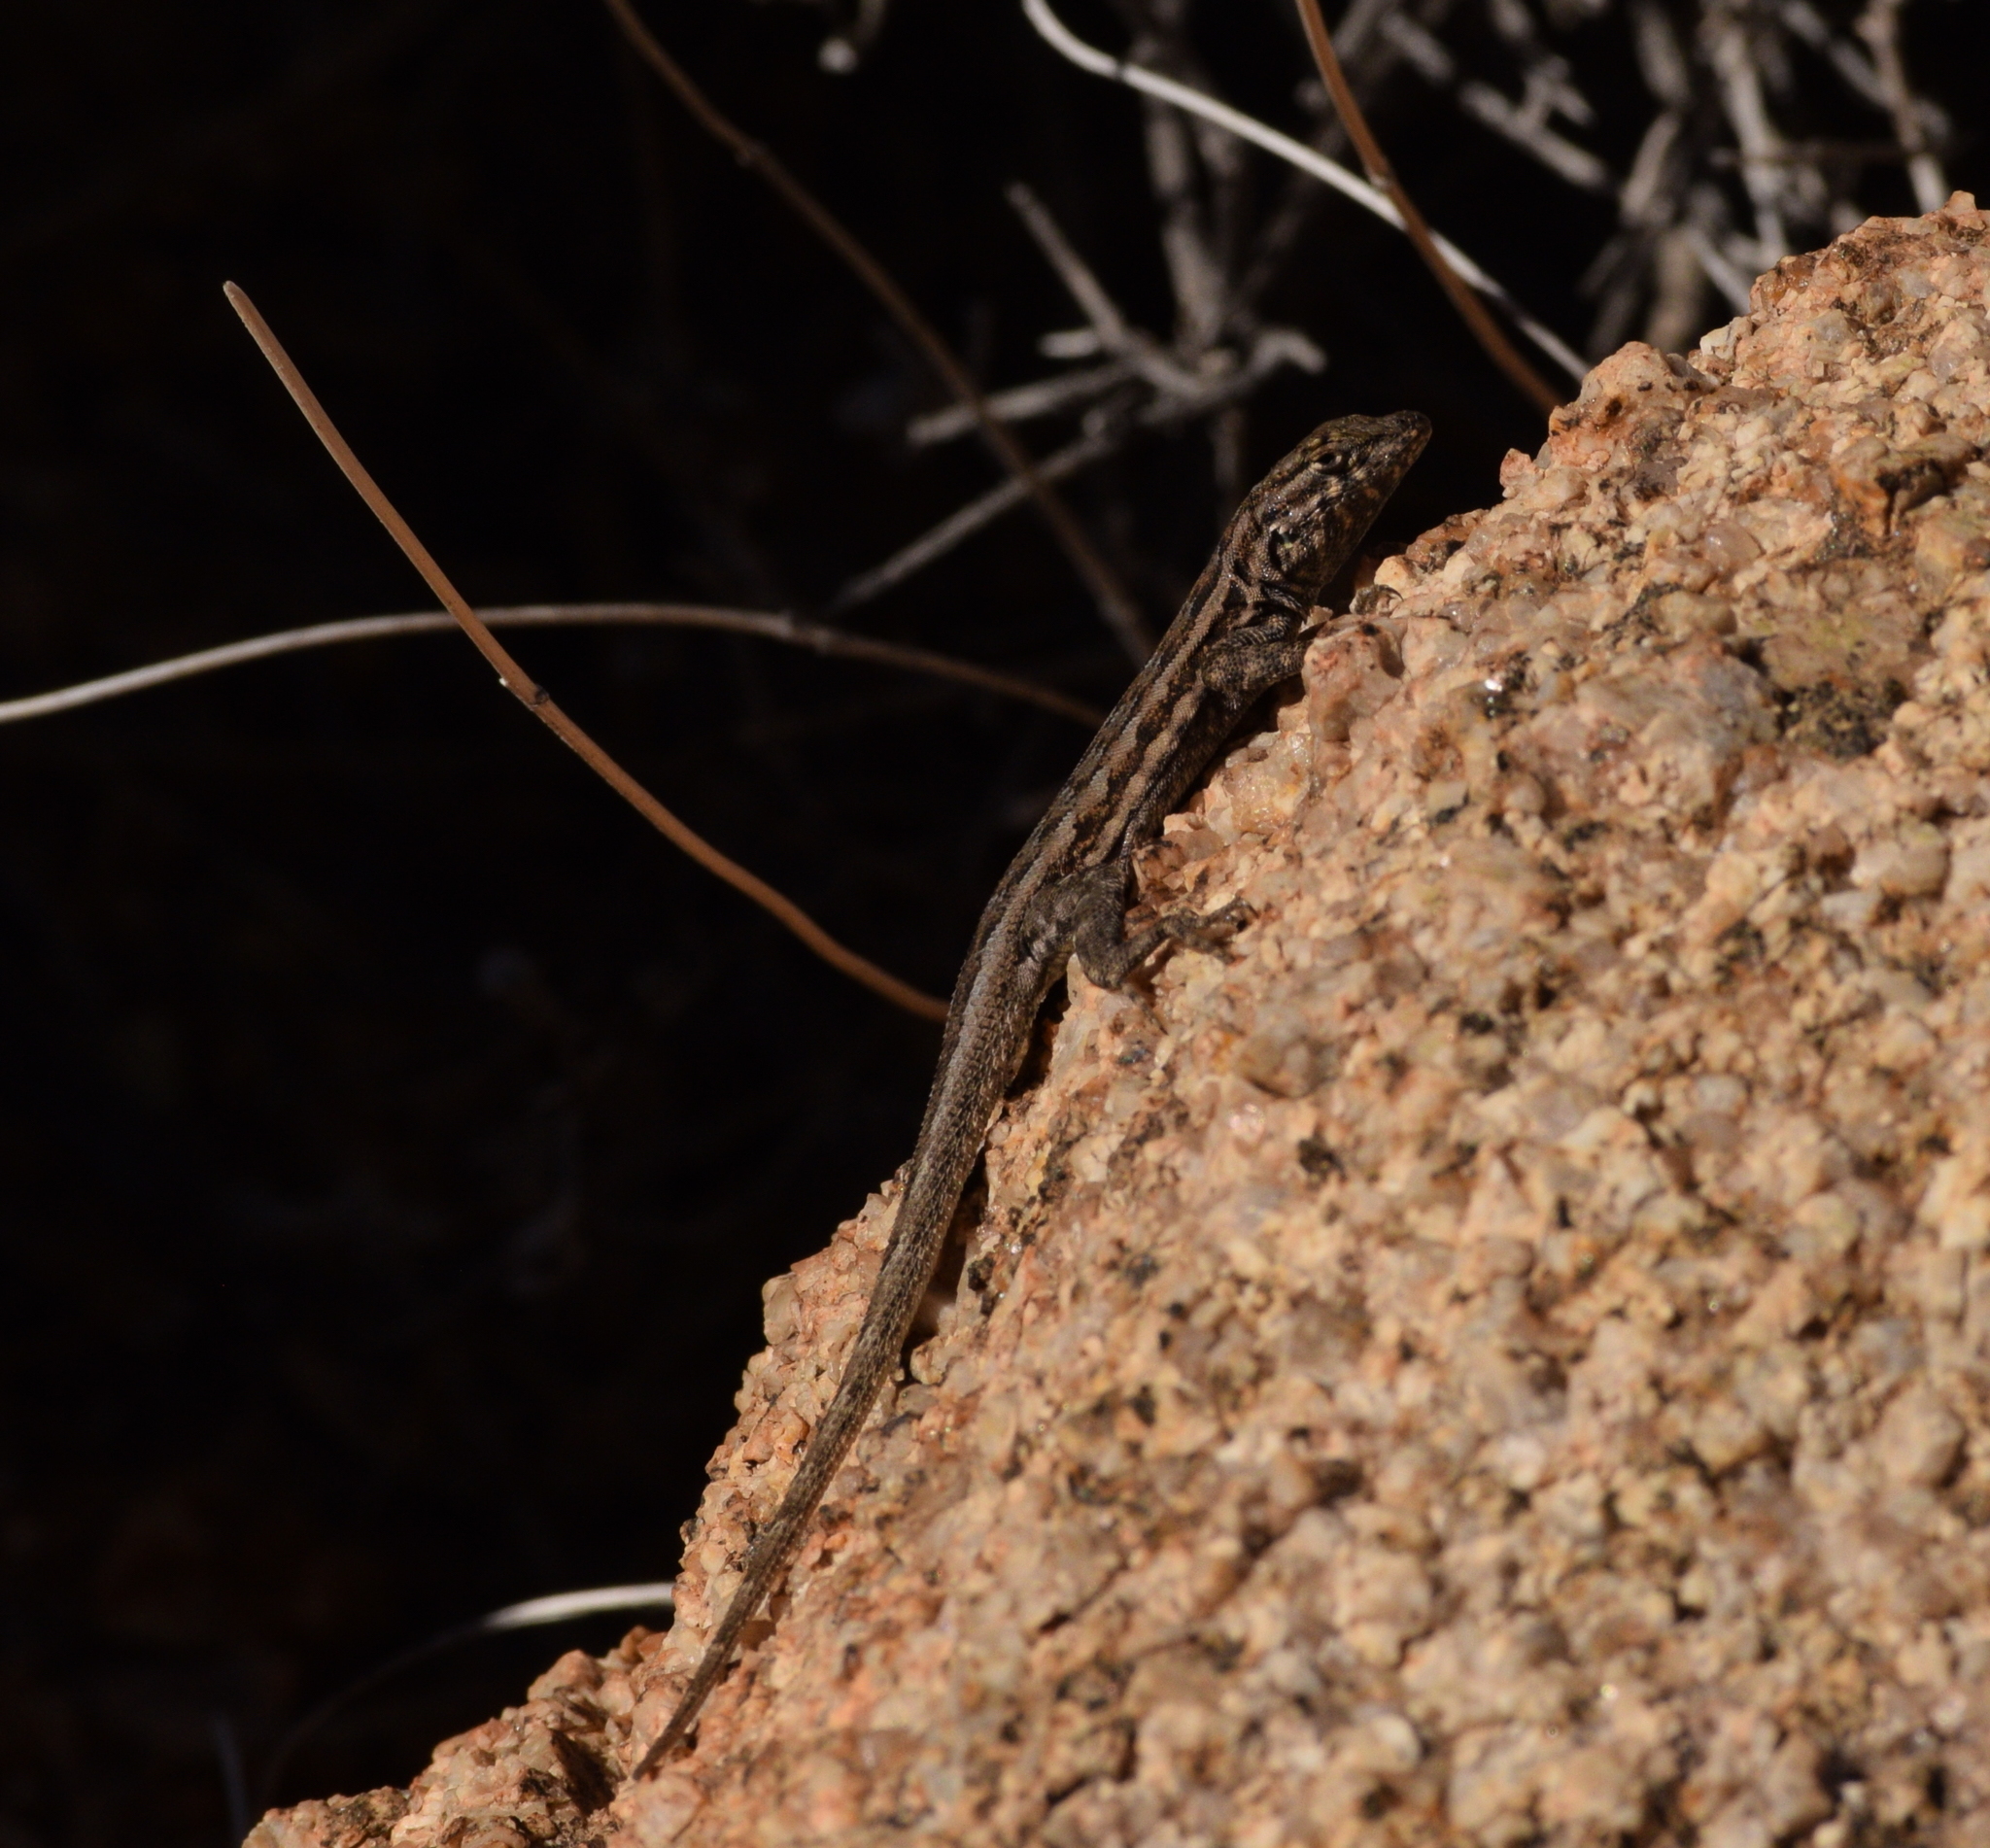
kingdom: Animalia
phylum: Chordata
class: Squamata
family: Phrynosomatidae
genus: Uta
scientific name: Uta stansburiana
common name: Side-blotched lizard
